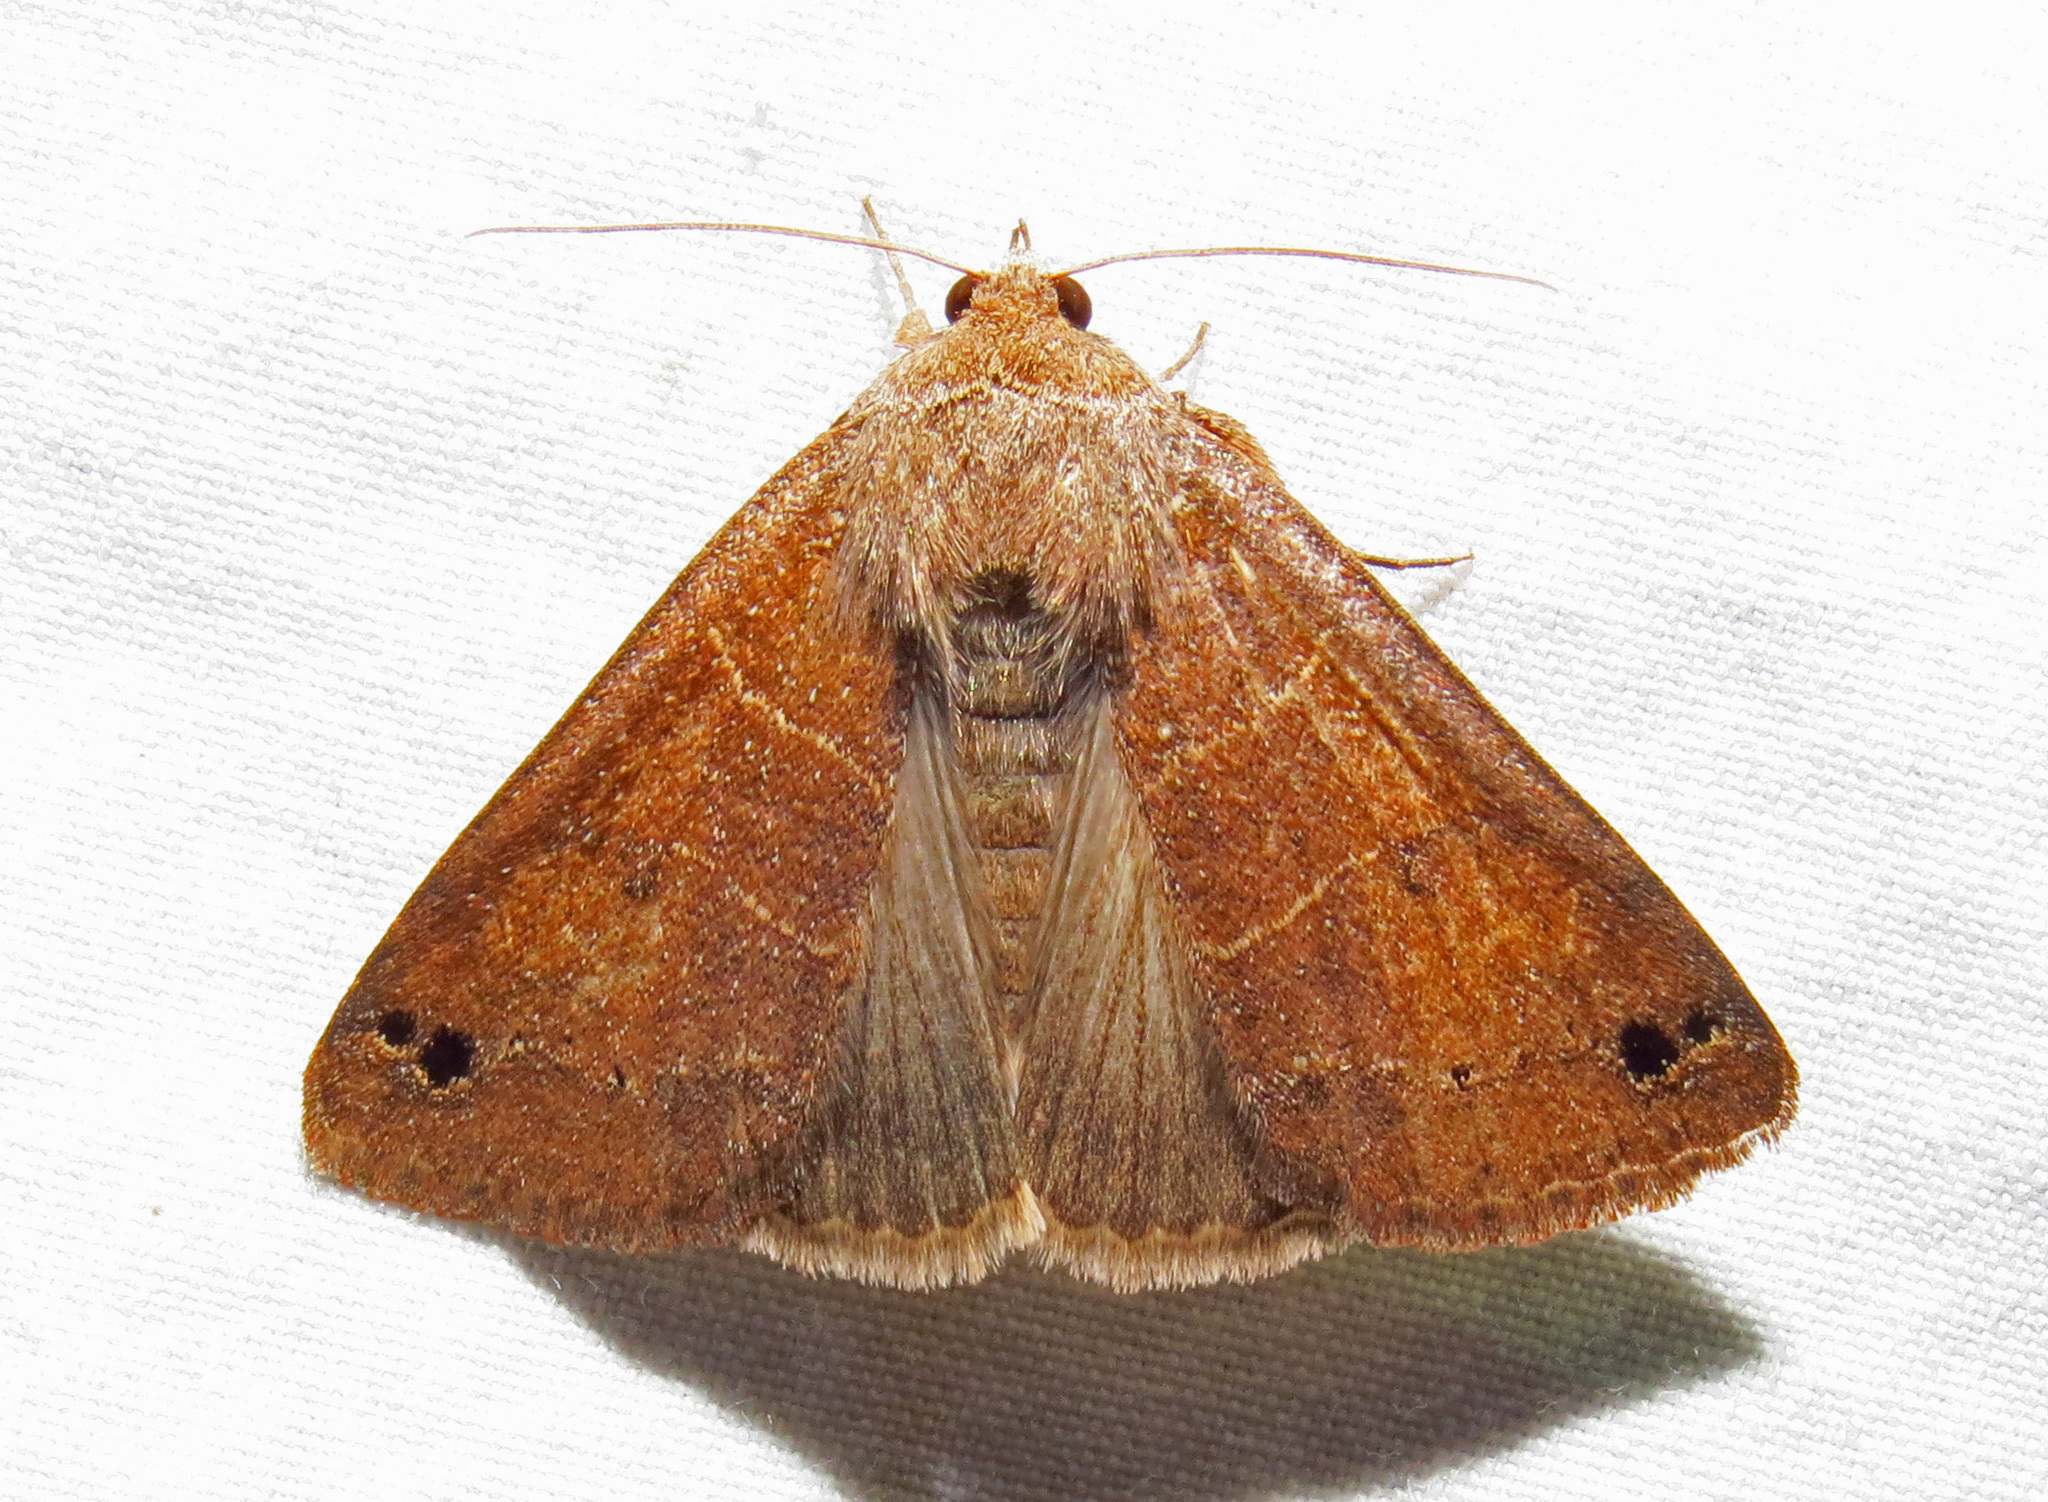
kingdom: Animalia
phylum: Arthropoda
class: Insecta
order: Lepidoptera
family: Erebidae
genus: Cissusa
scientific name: Cissusa spadix
